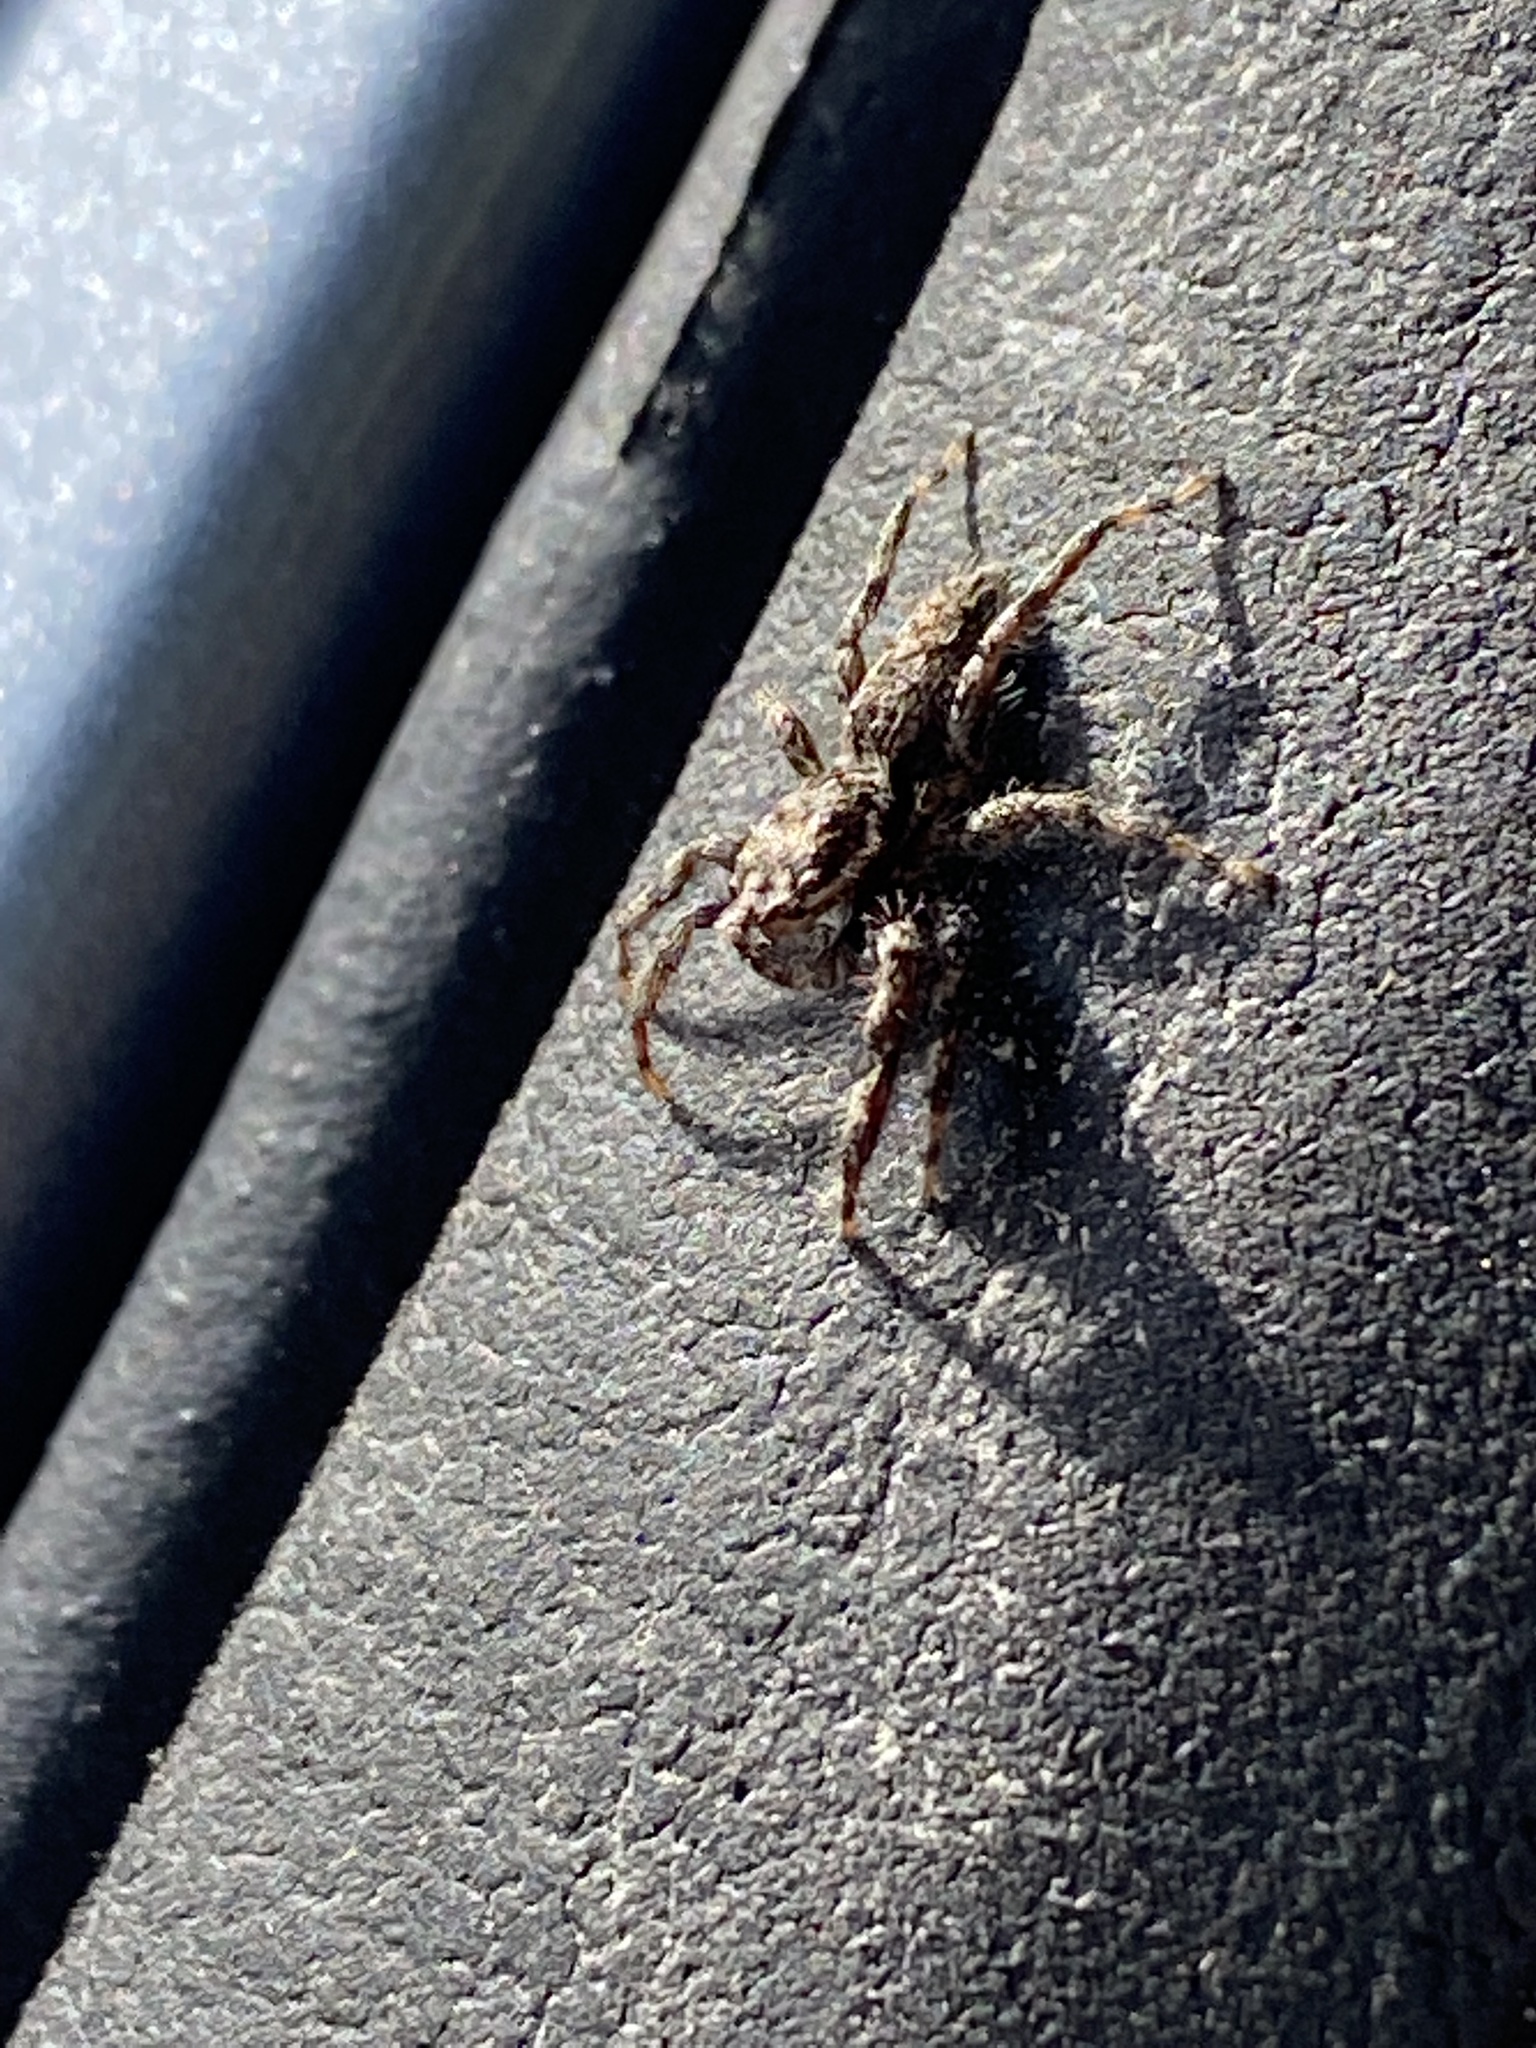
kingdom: Animalia
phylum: Arthropoda
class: Arachnida
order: Araneae
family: Salticidae
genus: Platycryptus
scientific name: Platycryptus undatus
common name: Tan jumping spider
